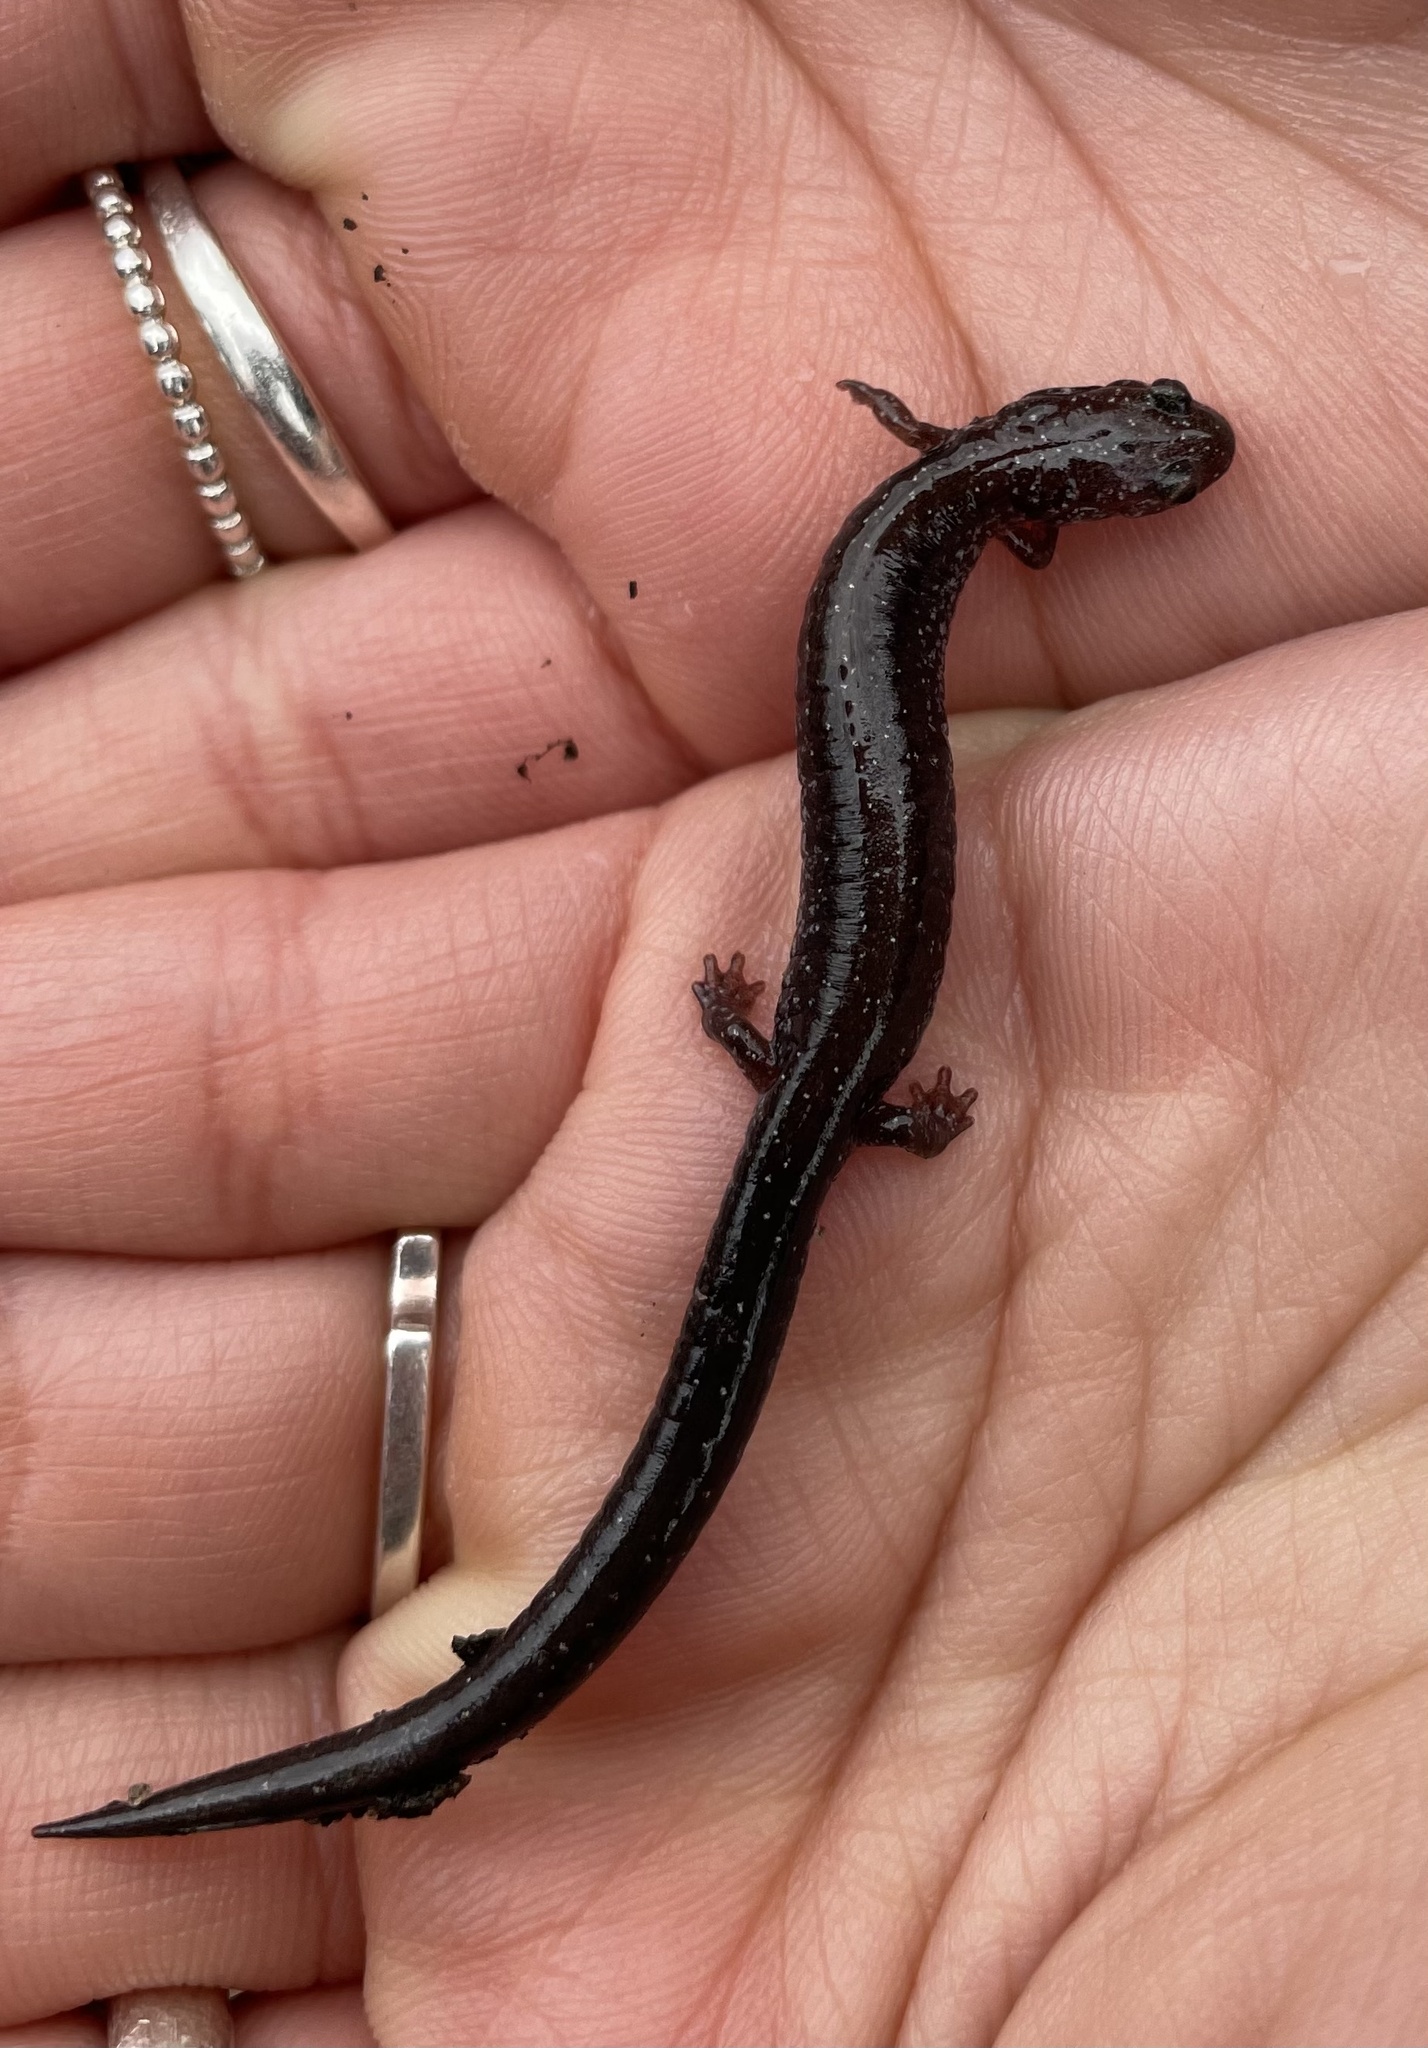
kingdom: Animalia
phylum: Chordata
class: Amphibia
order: Caudata
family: Plethodontidae
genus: Plethodon
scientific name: Plethodon cinereus
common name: Redback salamander
